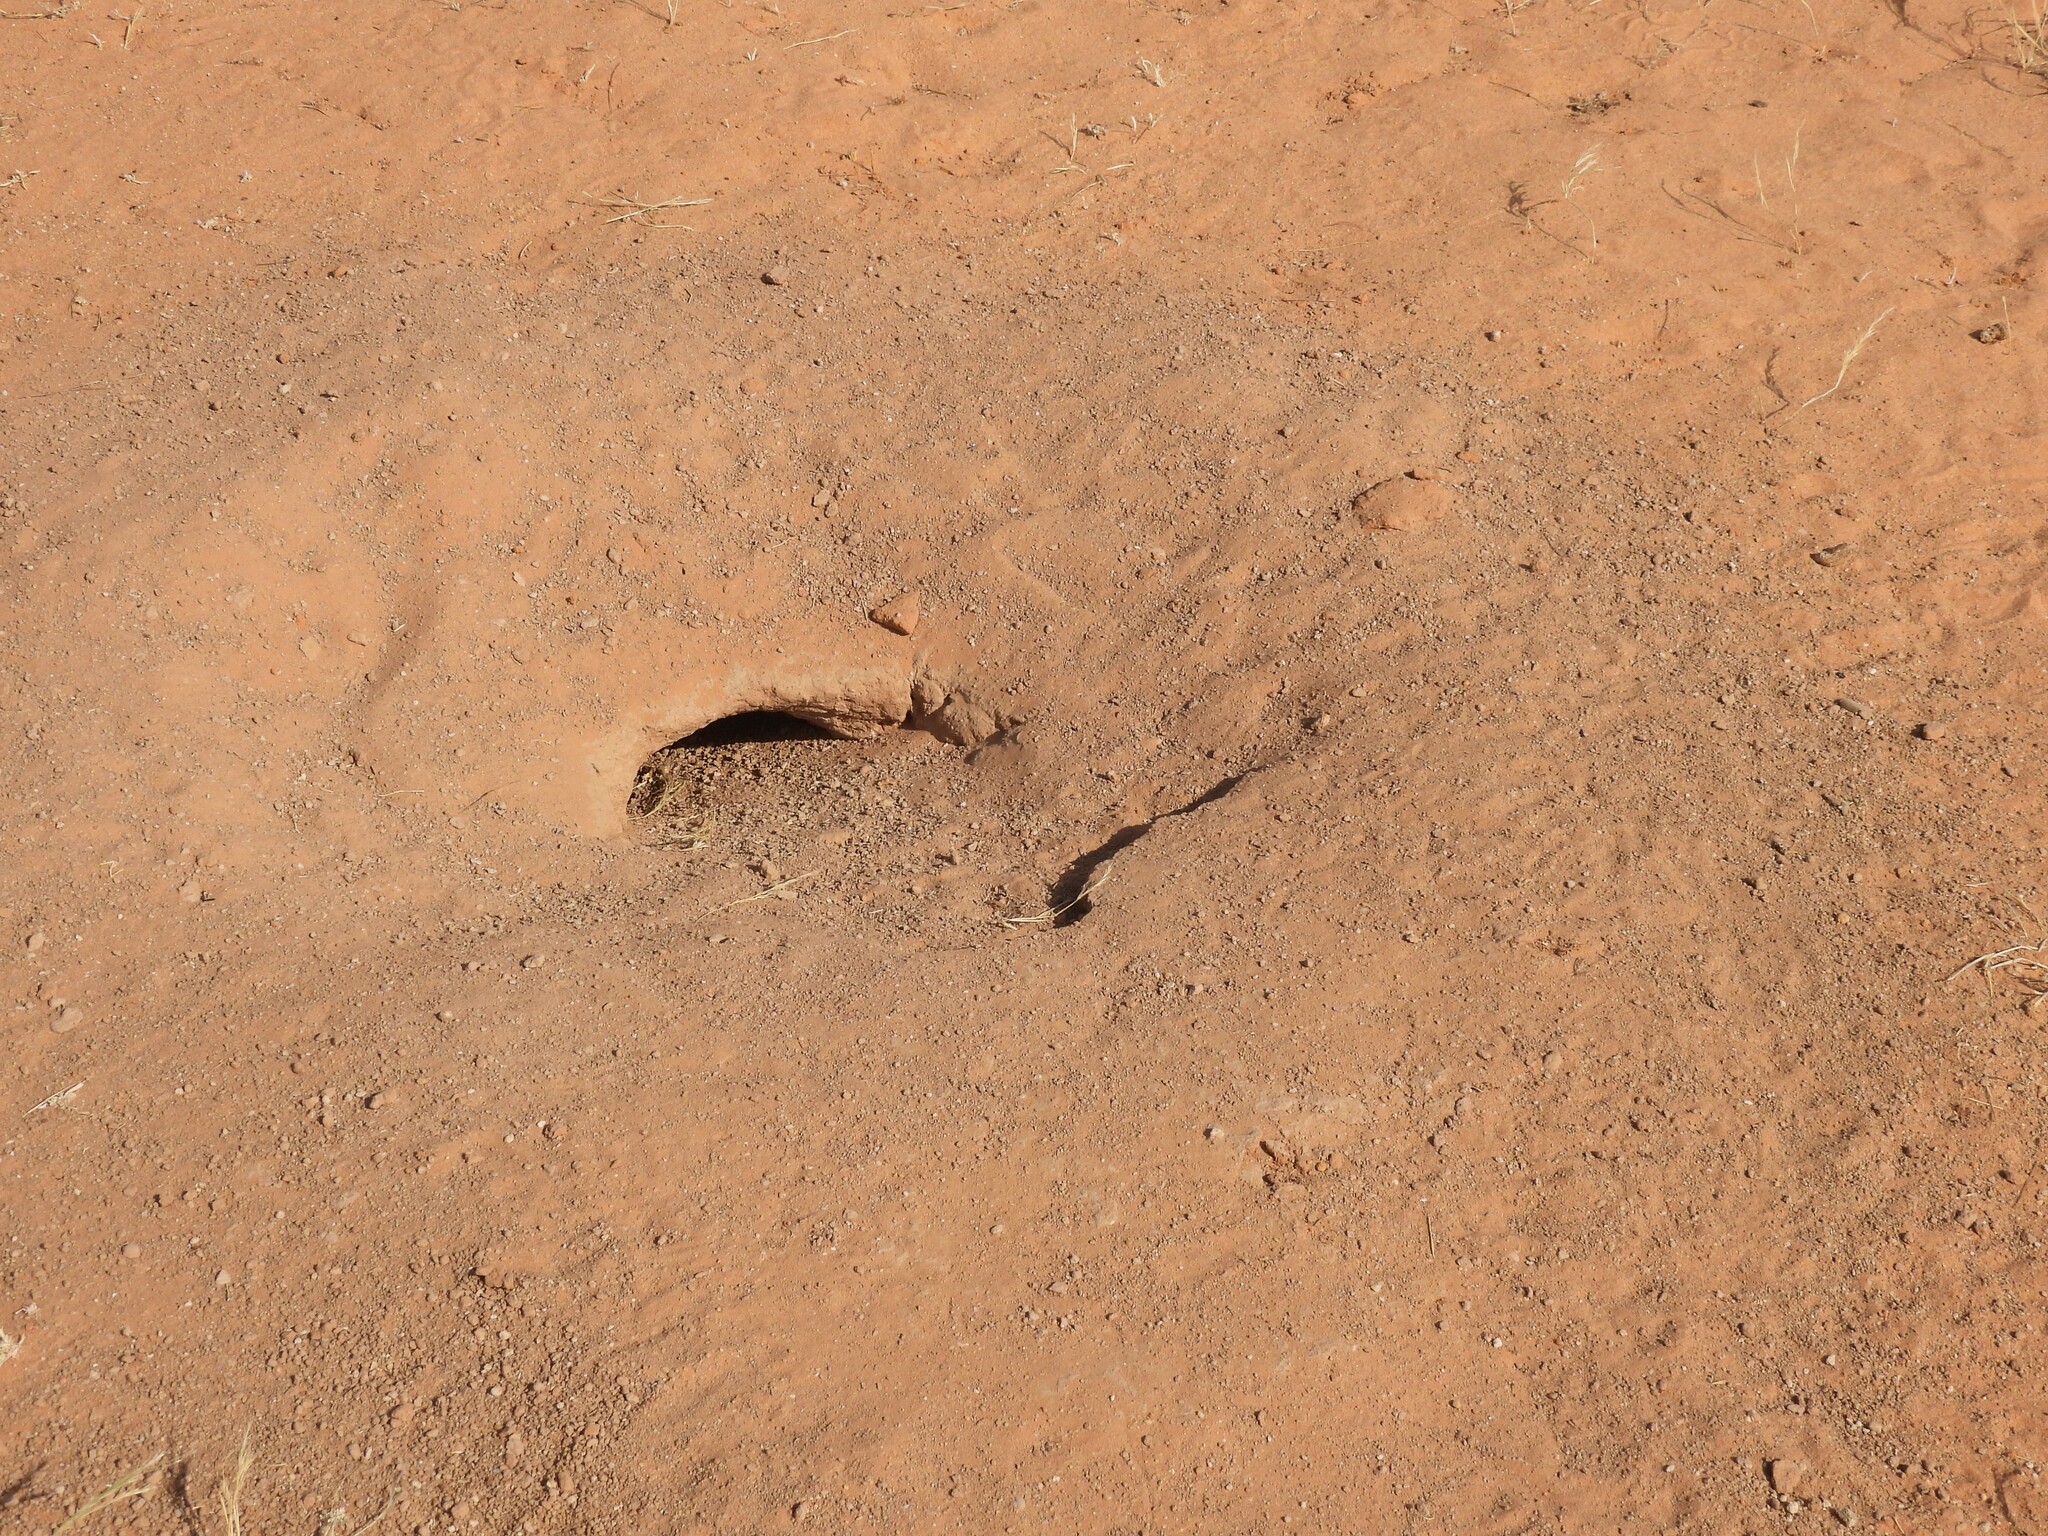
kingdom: Animalia
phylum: Chordata
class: Squamata
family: Agamidae
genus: Uromastyx
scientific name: Uromastyx aegyptia
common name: Egyptian mastigure
